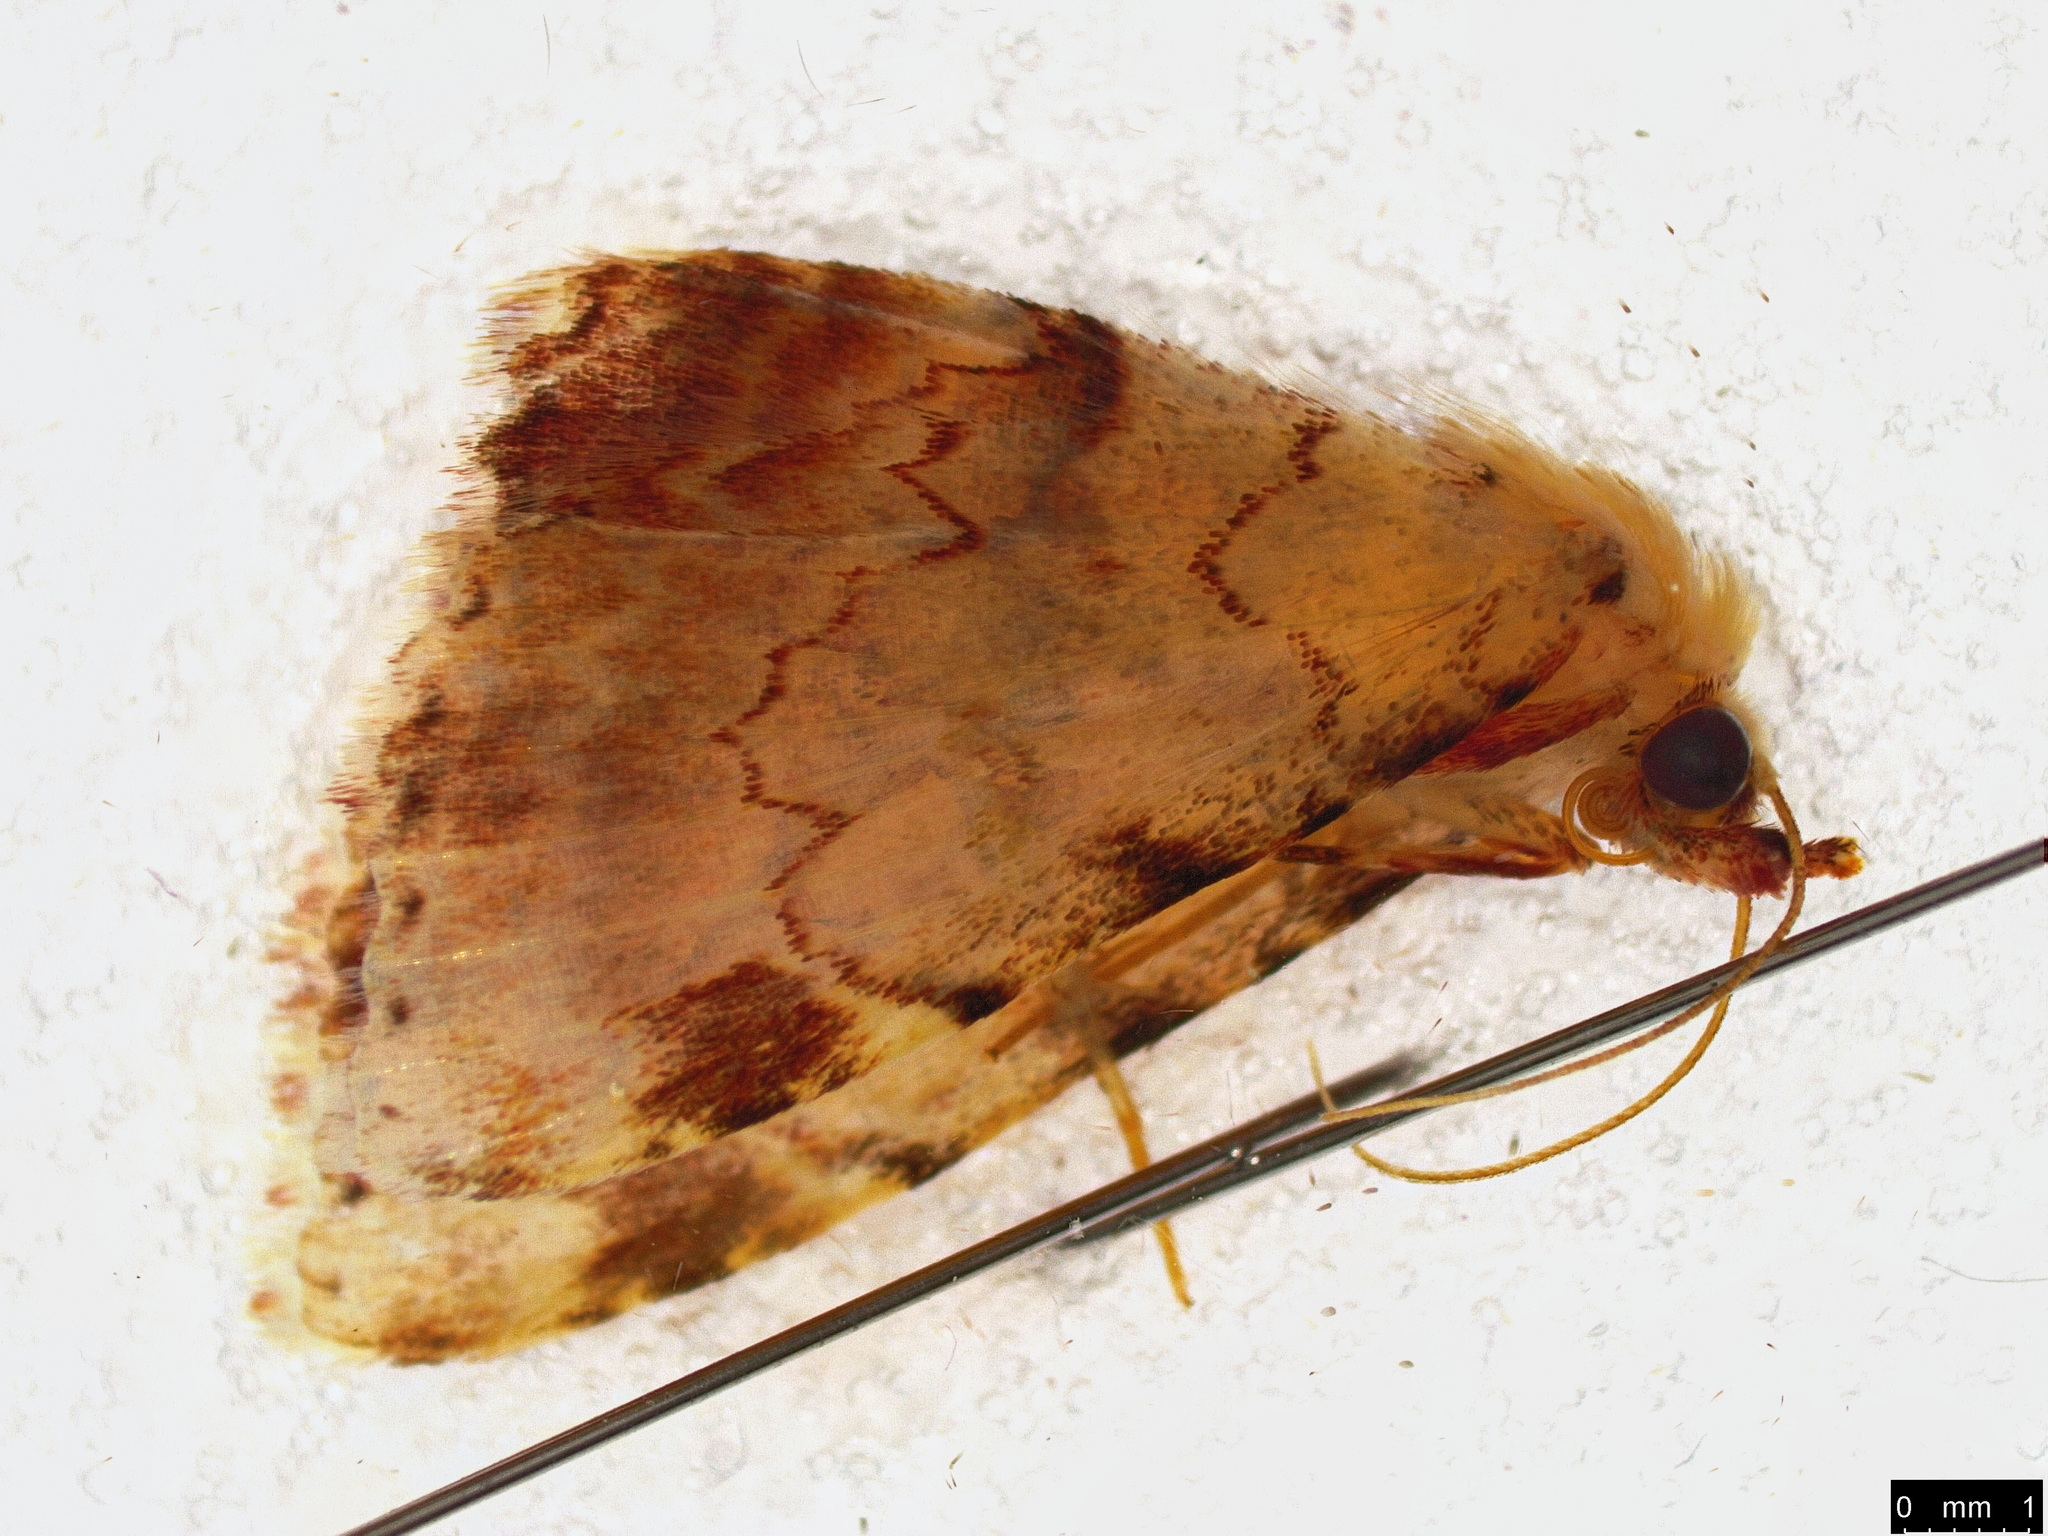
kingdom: Animalia
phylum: Arthropoda
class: Insecta
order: Lepidoptera
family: Erebidae
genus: Sandava
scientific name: Sandava xylistis
